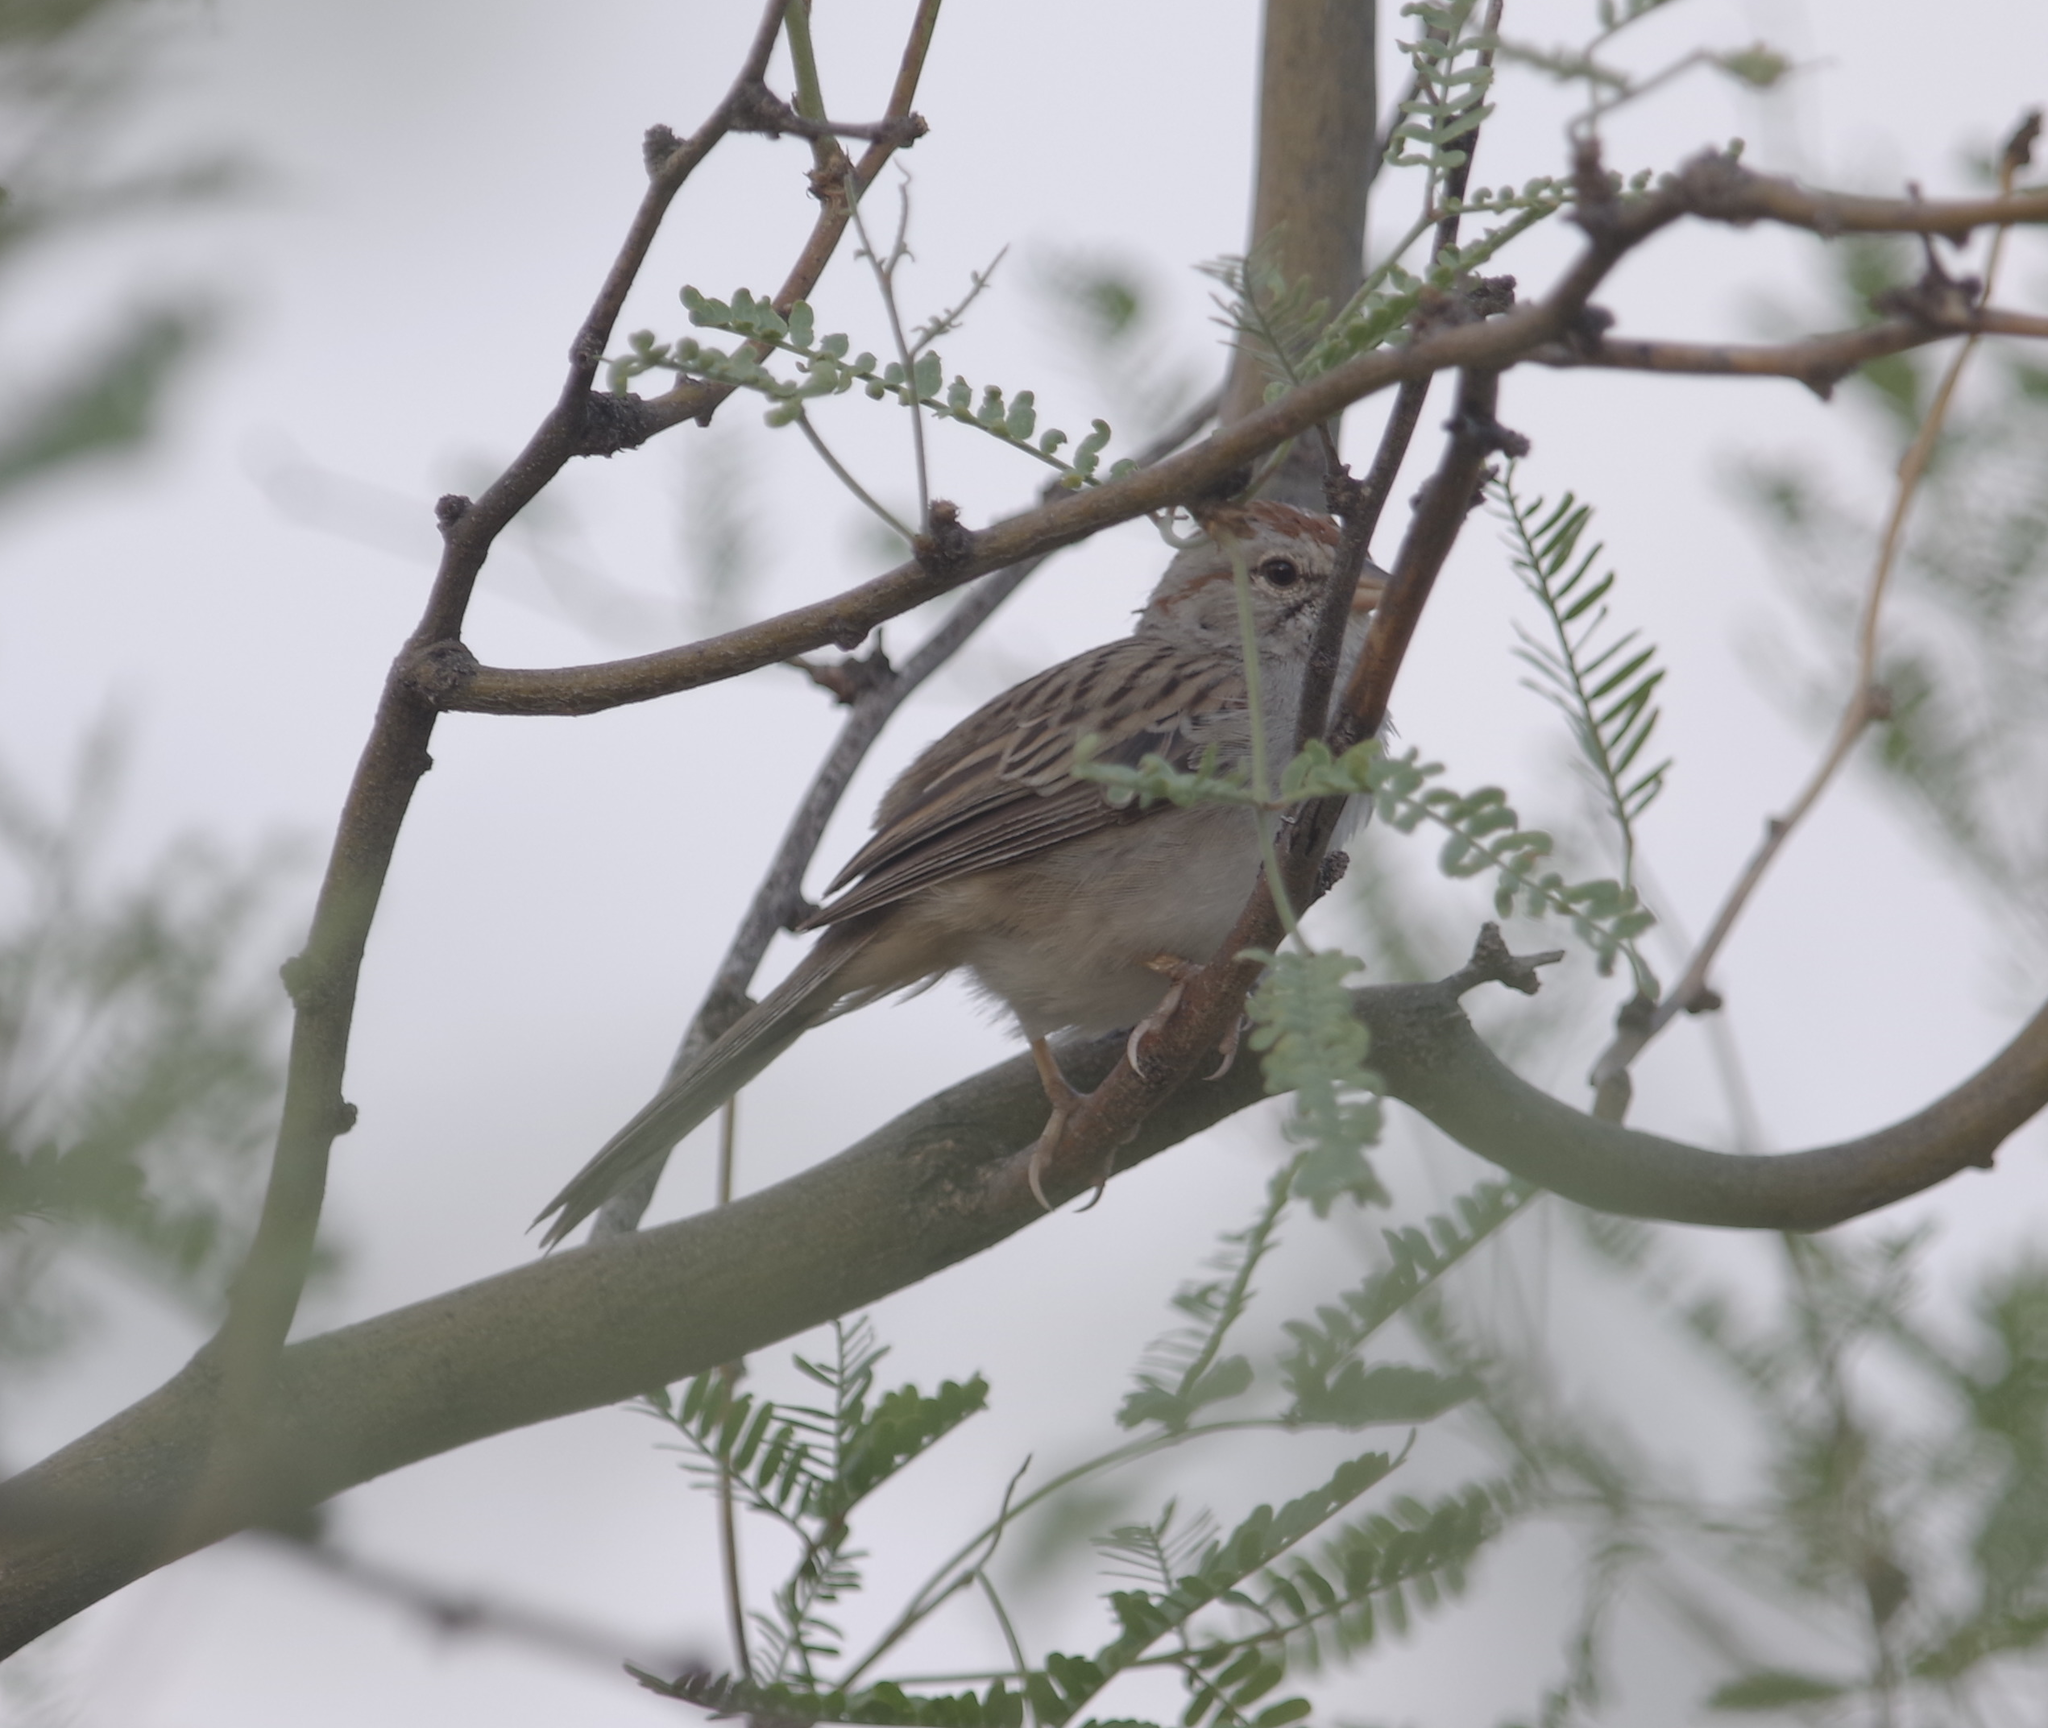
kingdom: Animalia
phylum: Chordata
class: Aves
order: Passeriformes
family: Passerellidae
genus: Peucaea
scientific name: Peucaea carpalis
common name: Rufous-winged sparrow
